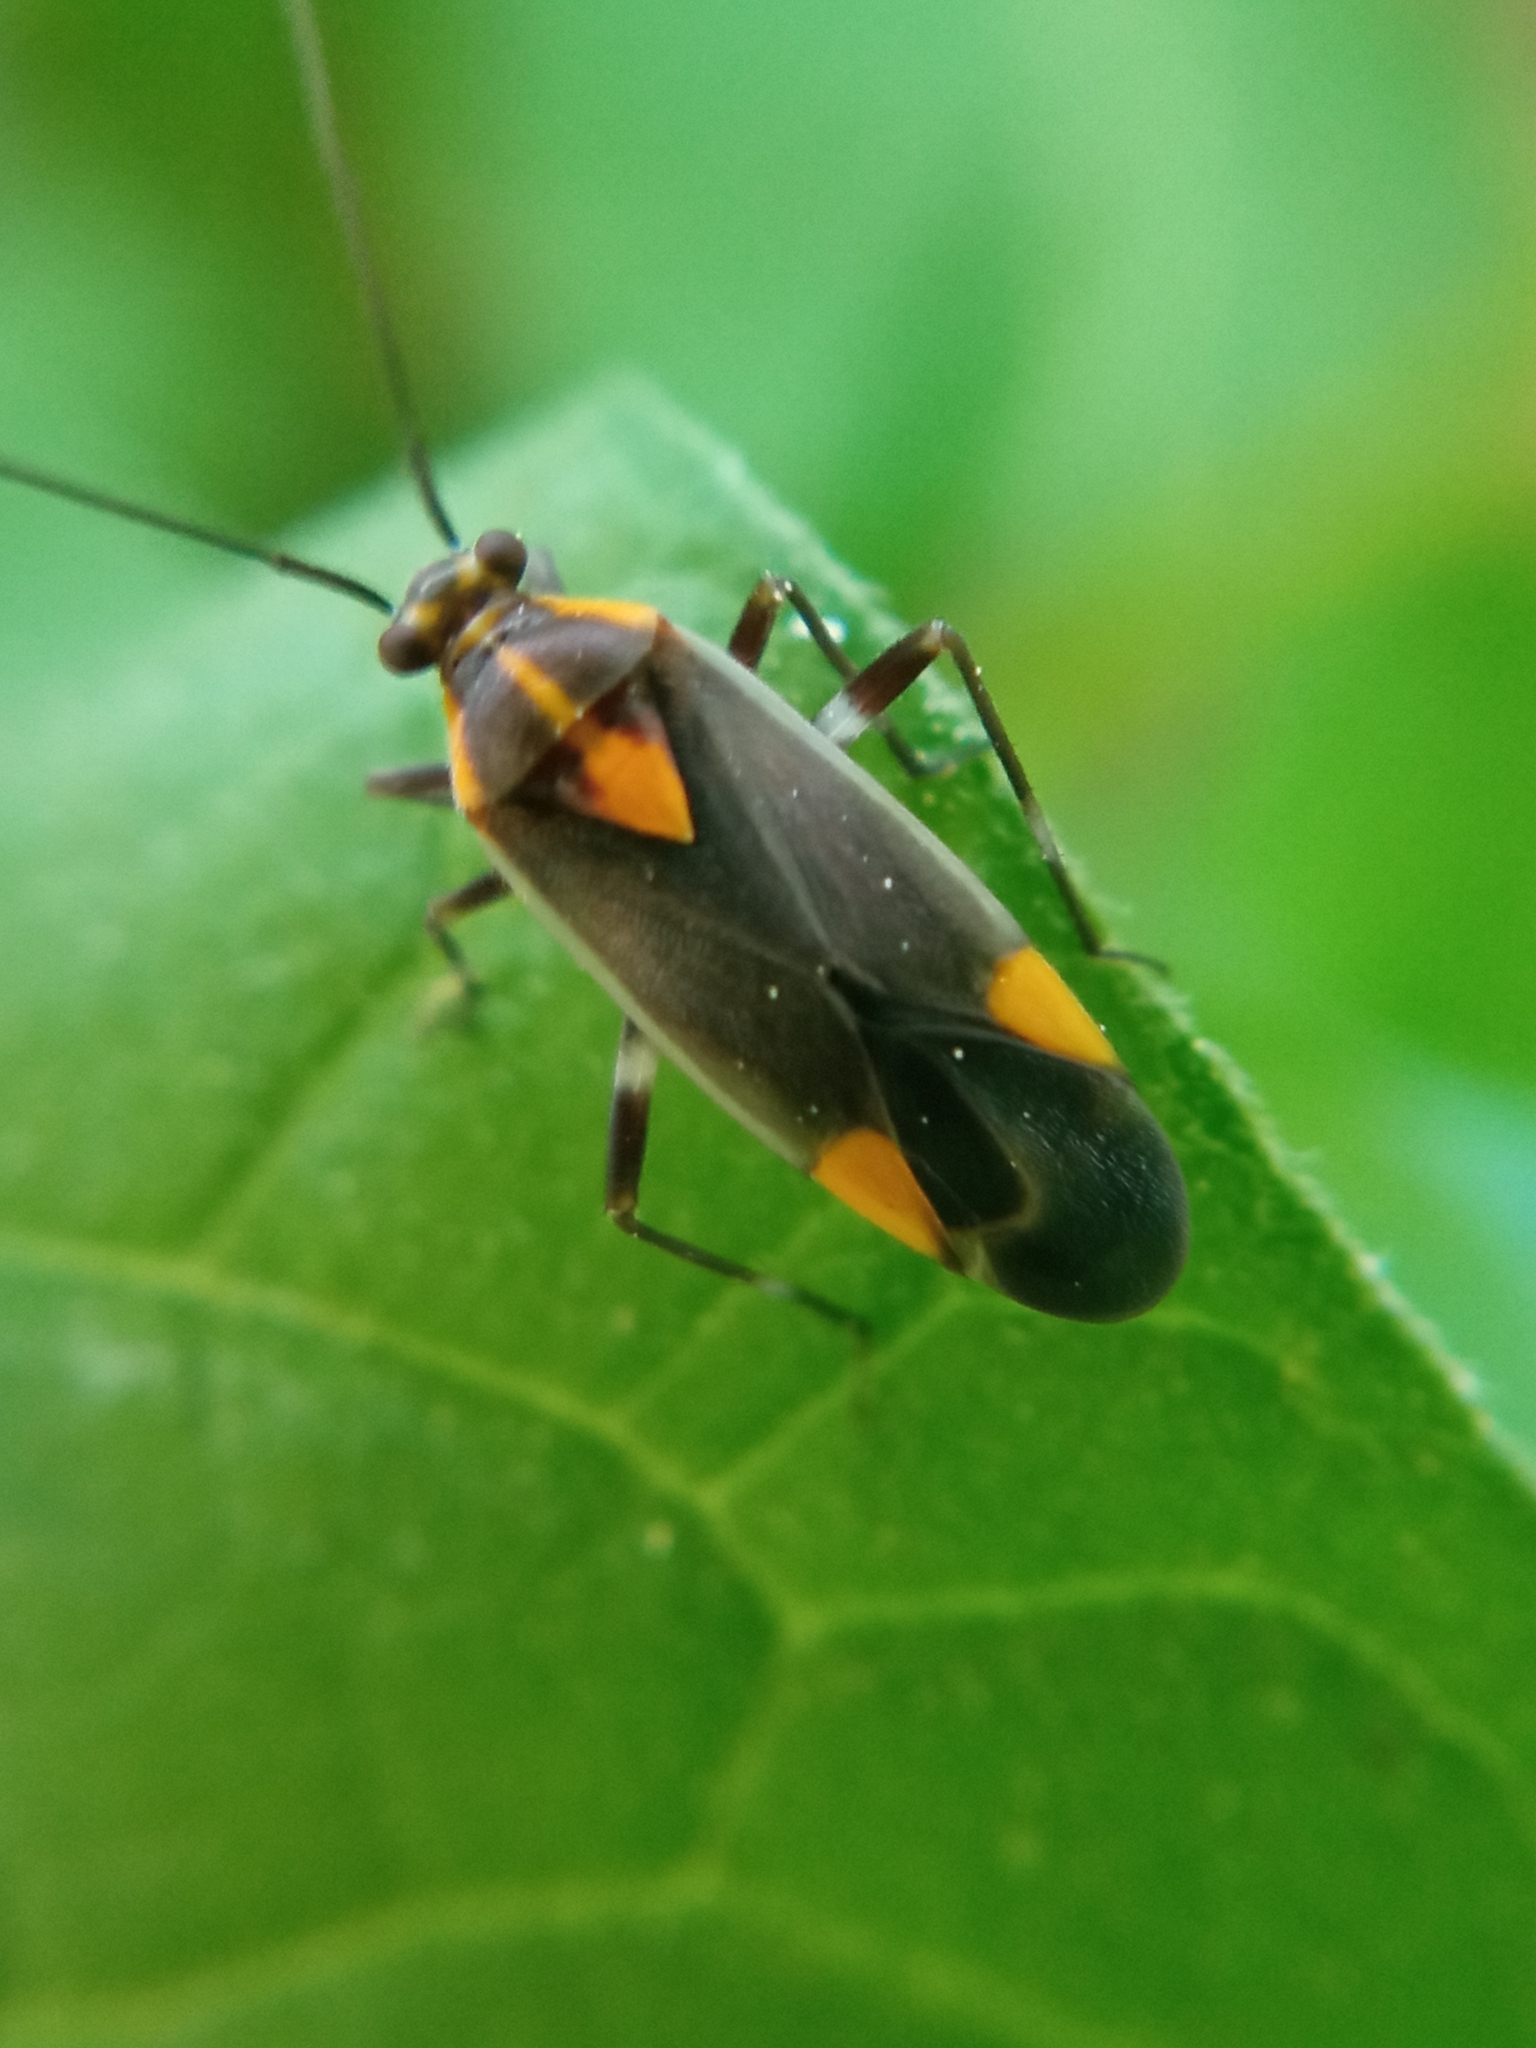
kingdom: Animalia
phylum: Arthropoda
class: Insecta
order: Hemiptera
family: Miridae
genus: Capsodes
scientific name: Capsodes flavomarginatus
